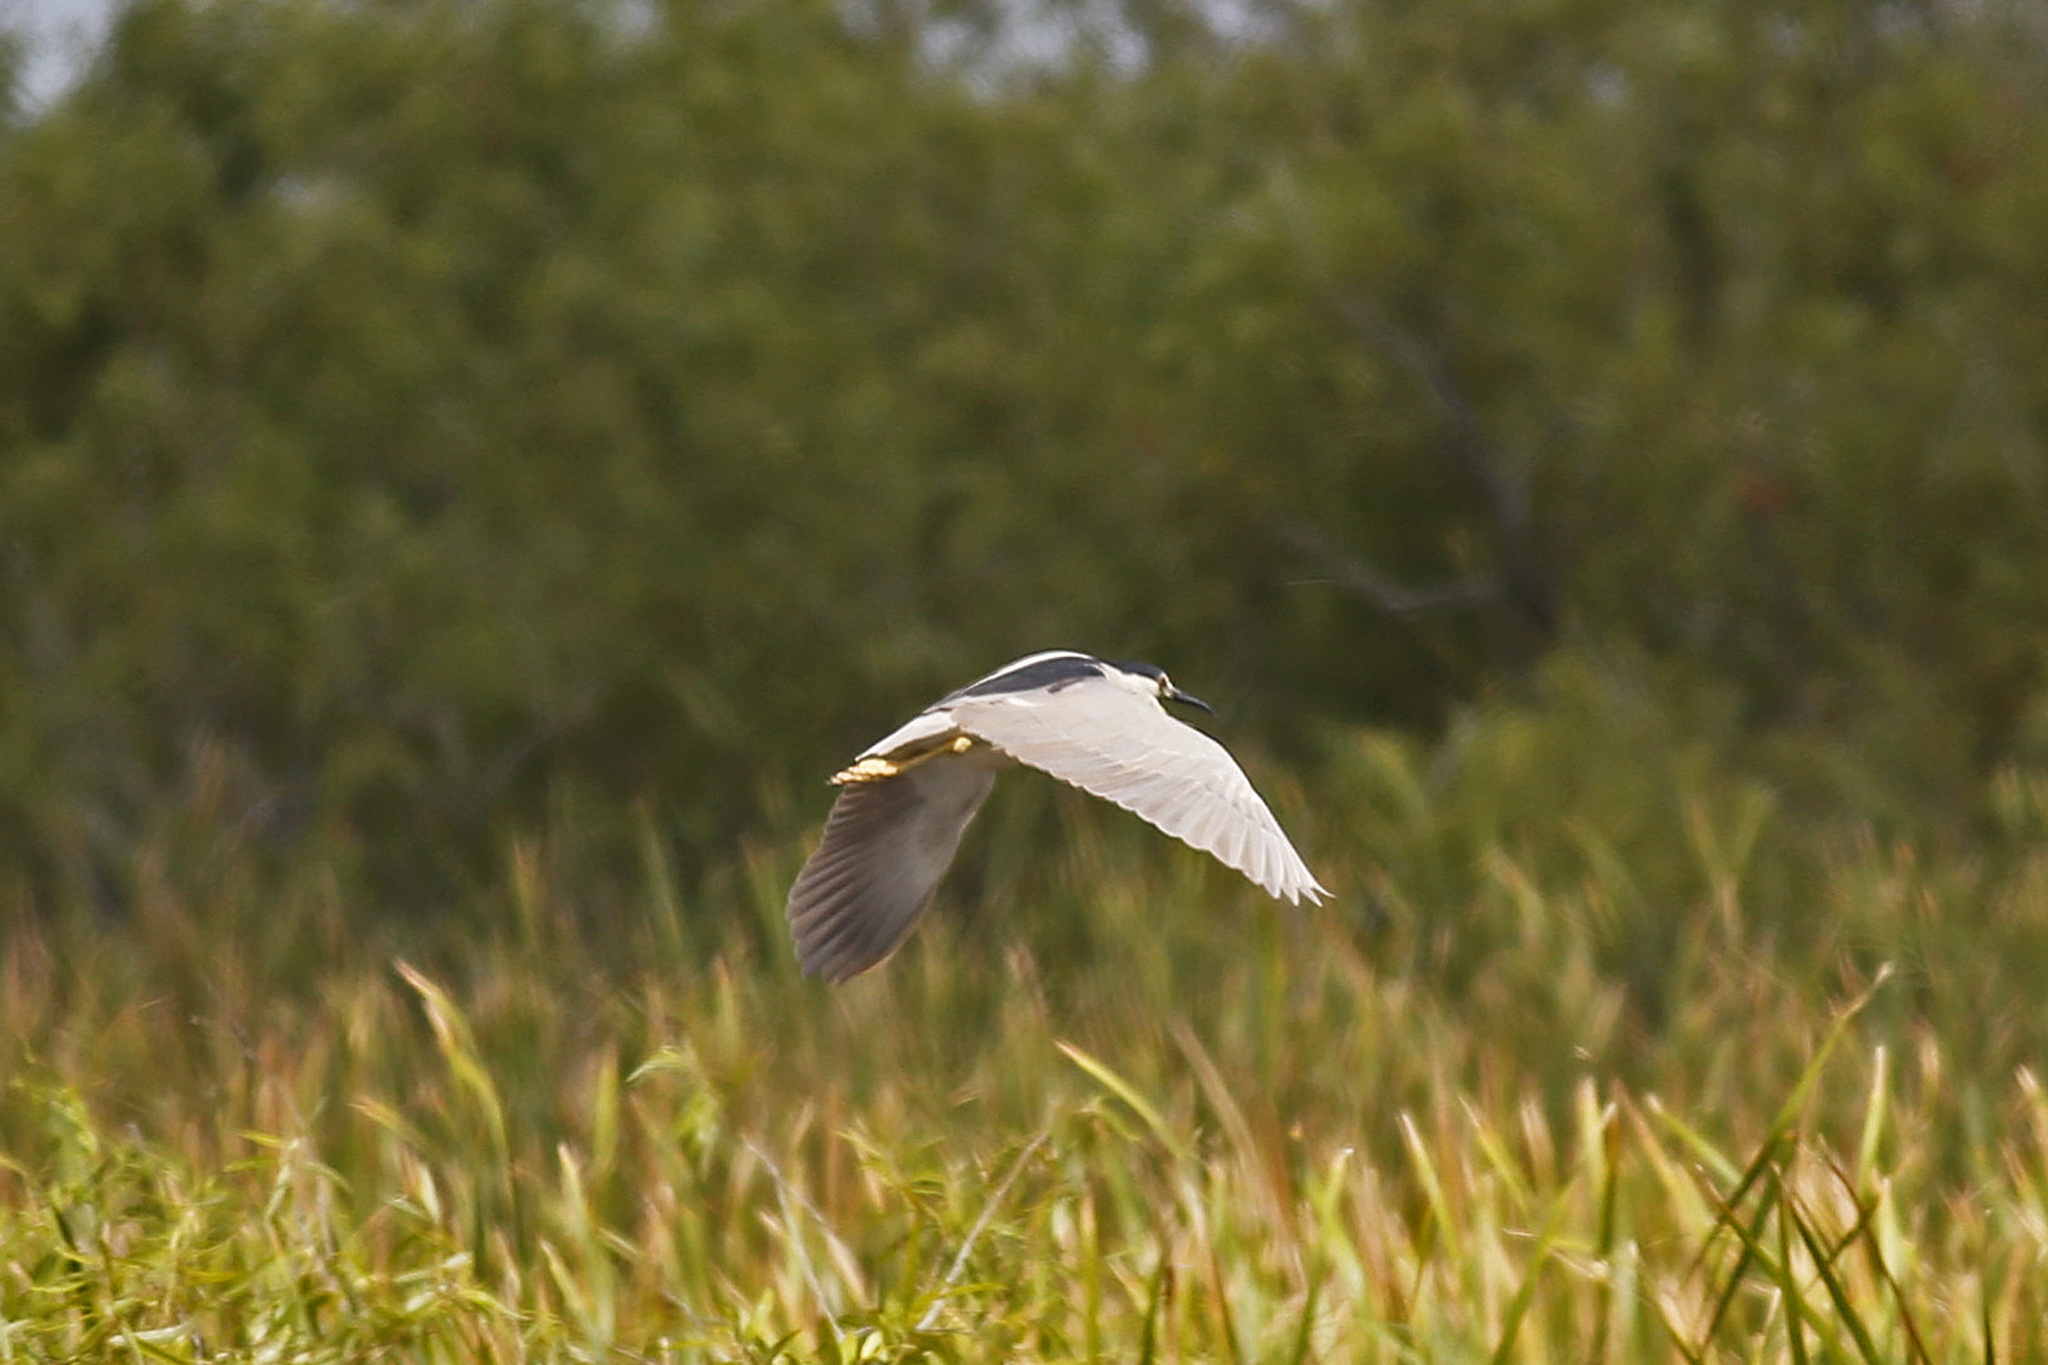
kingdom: Animalia
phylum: Chordata
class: Aves
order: Pelecaniformes
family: Ardeidae
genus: Nycticorax
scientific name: Nycticorax nycticorax
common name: Black-crowned night heron
